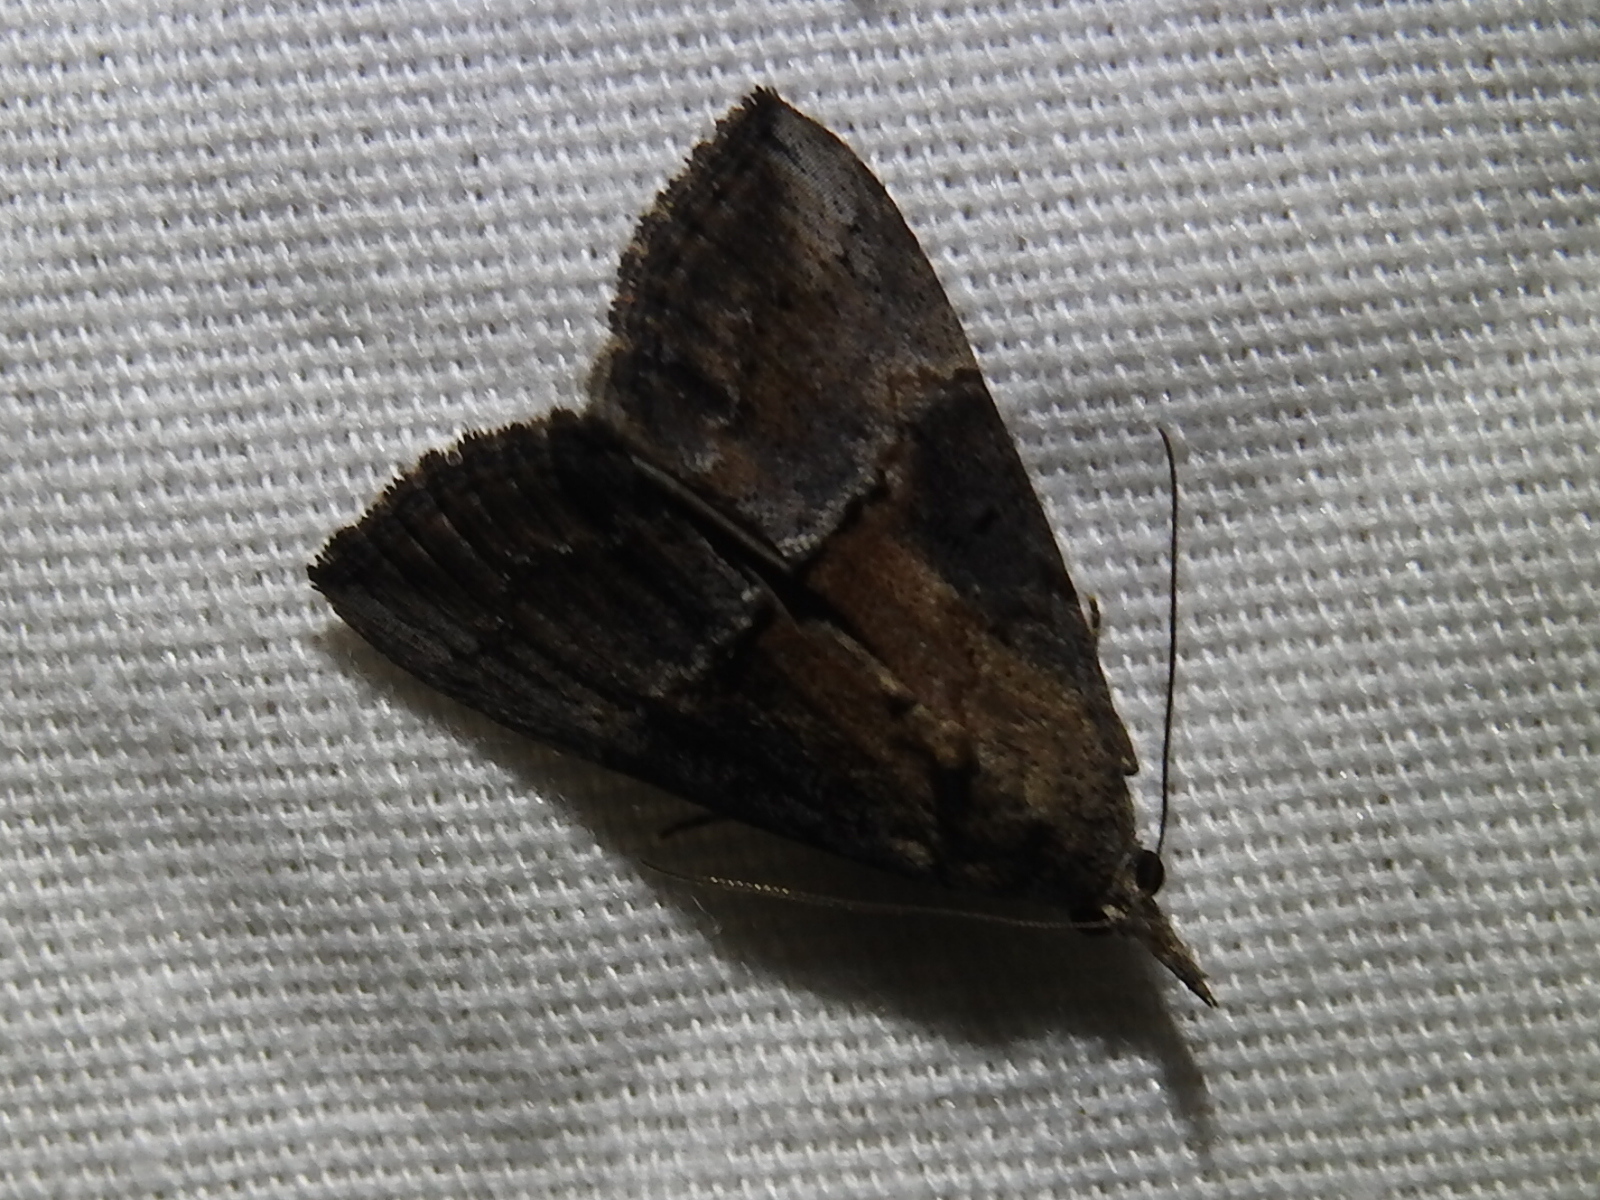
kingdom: Animalia
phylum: Arthropoda
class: Insecta
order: Lepidoptera
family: Erebidae
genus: Hypena
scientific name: Hypena scabra
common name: Green cloverworm
